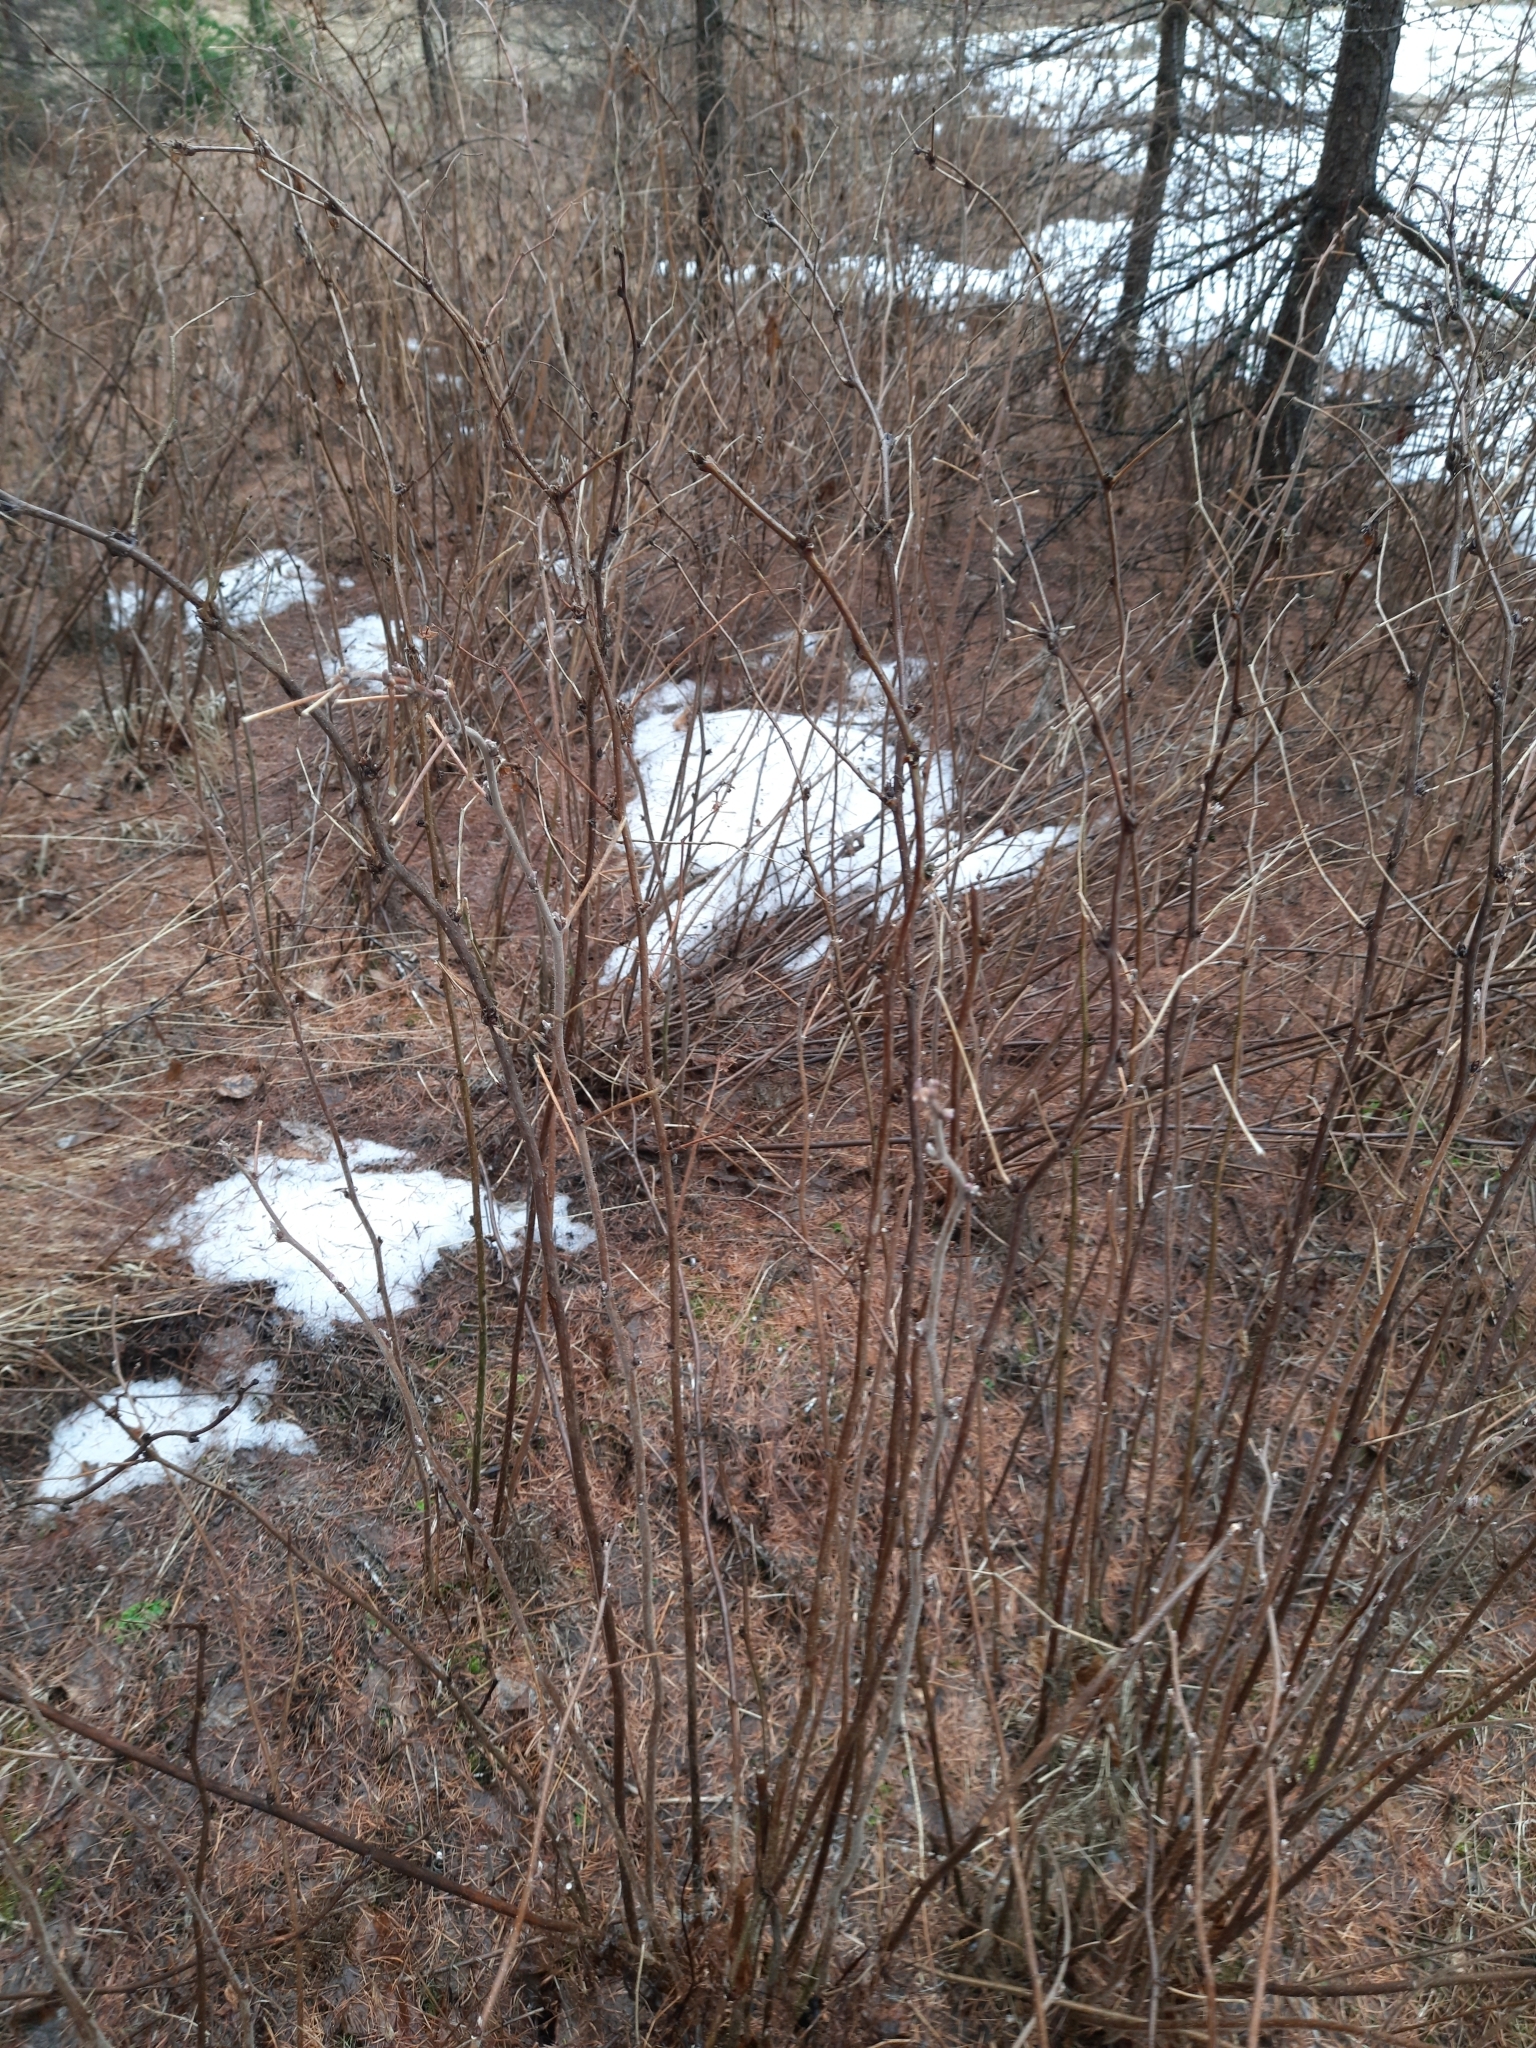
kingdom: Plantae
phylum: Tracheophyta
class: Magnoliopsida
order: Rosales
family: Rosaceae
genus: Rubus
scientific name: Rubus idaeus
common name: Raspberry
